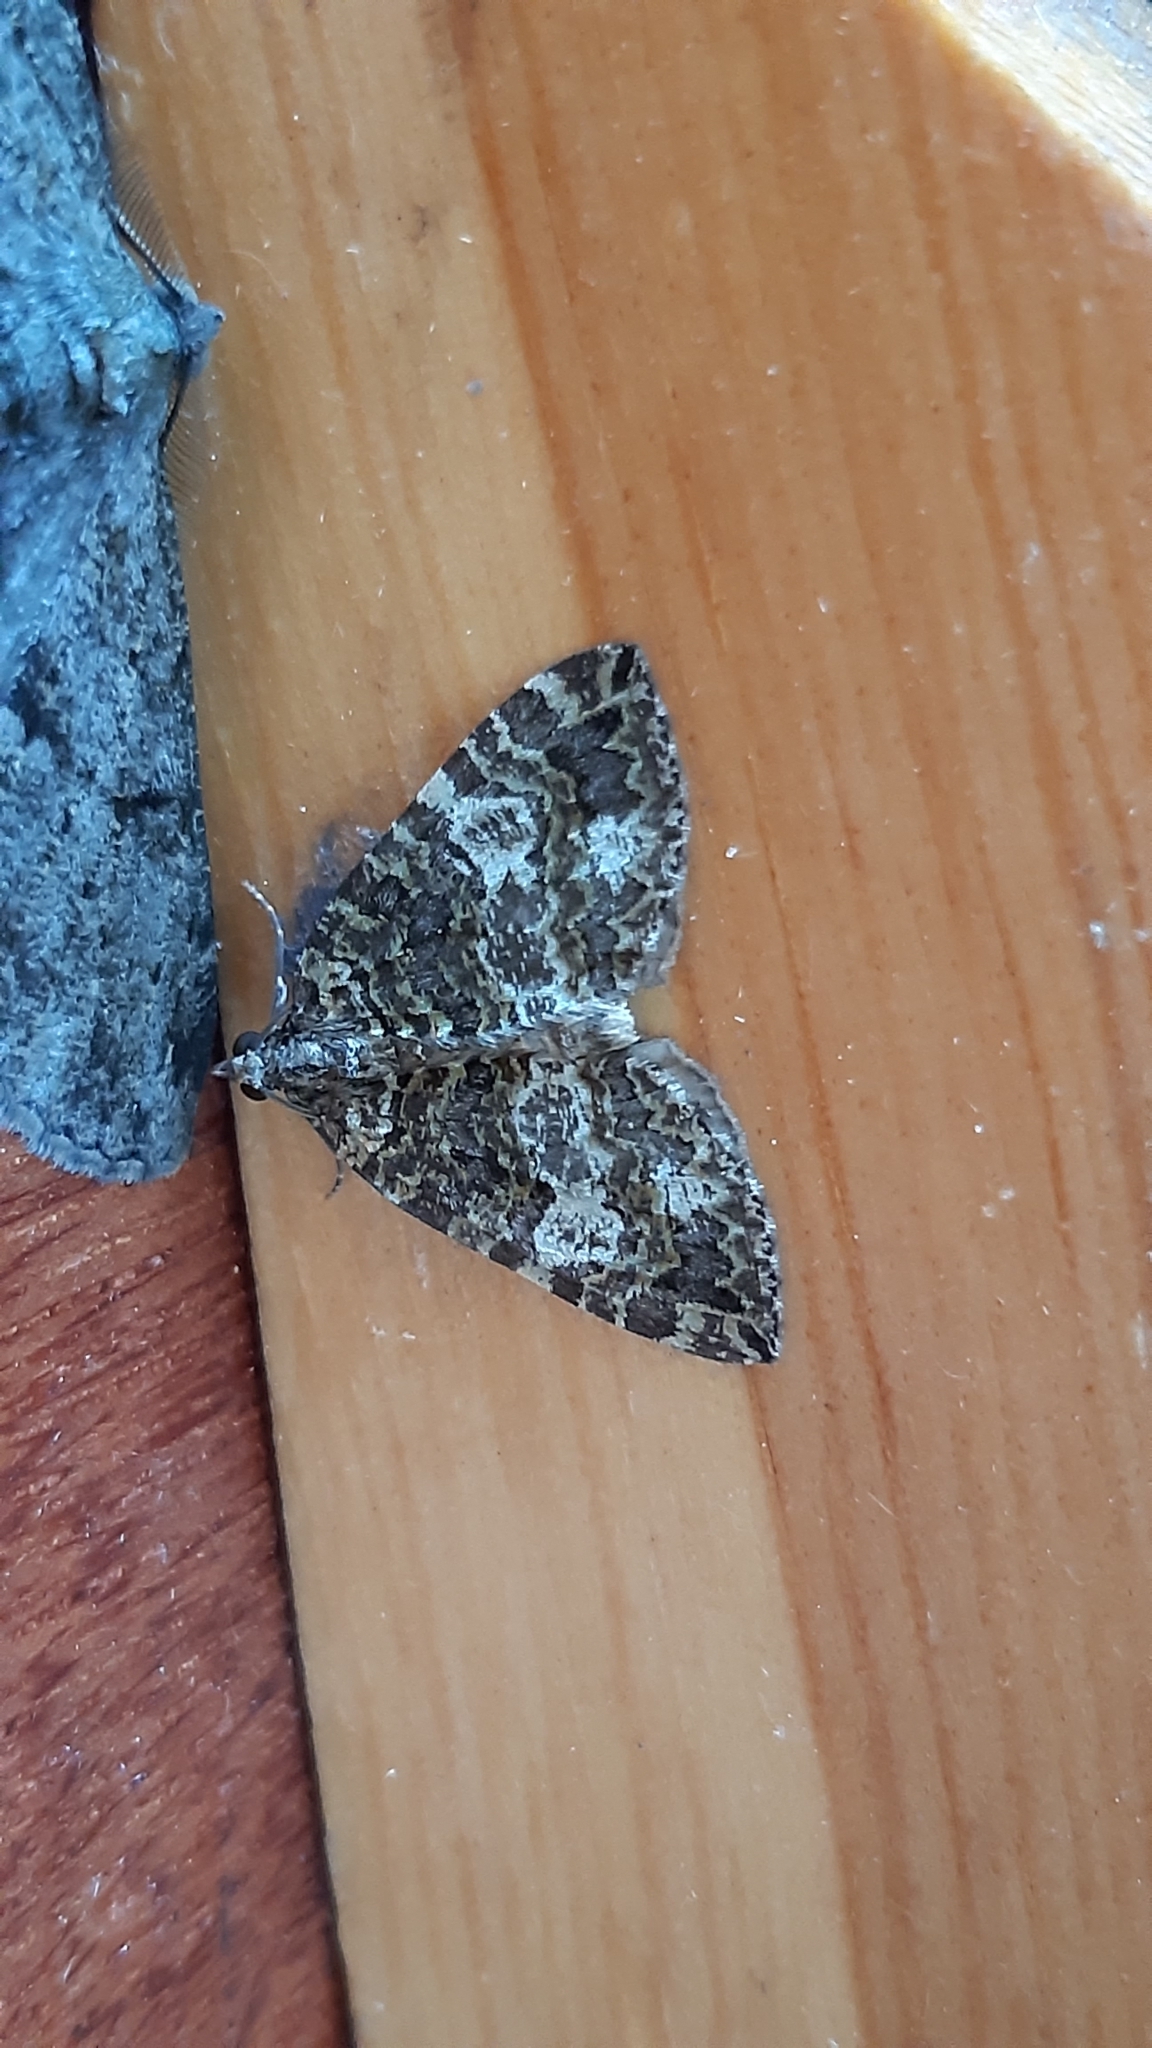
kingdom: Animalia
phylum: Arthropoda
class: Insecta
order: Lepidoptera
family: Geometridae
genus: Hydriomena
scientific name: Hydriomena furcata
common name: July highflyer
